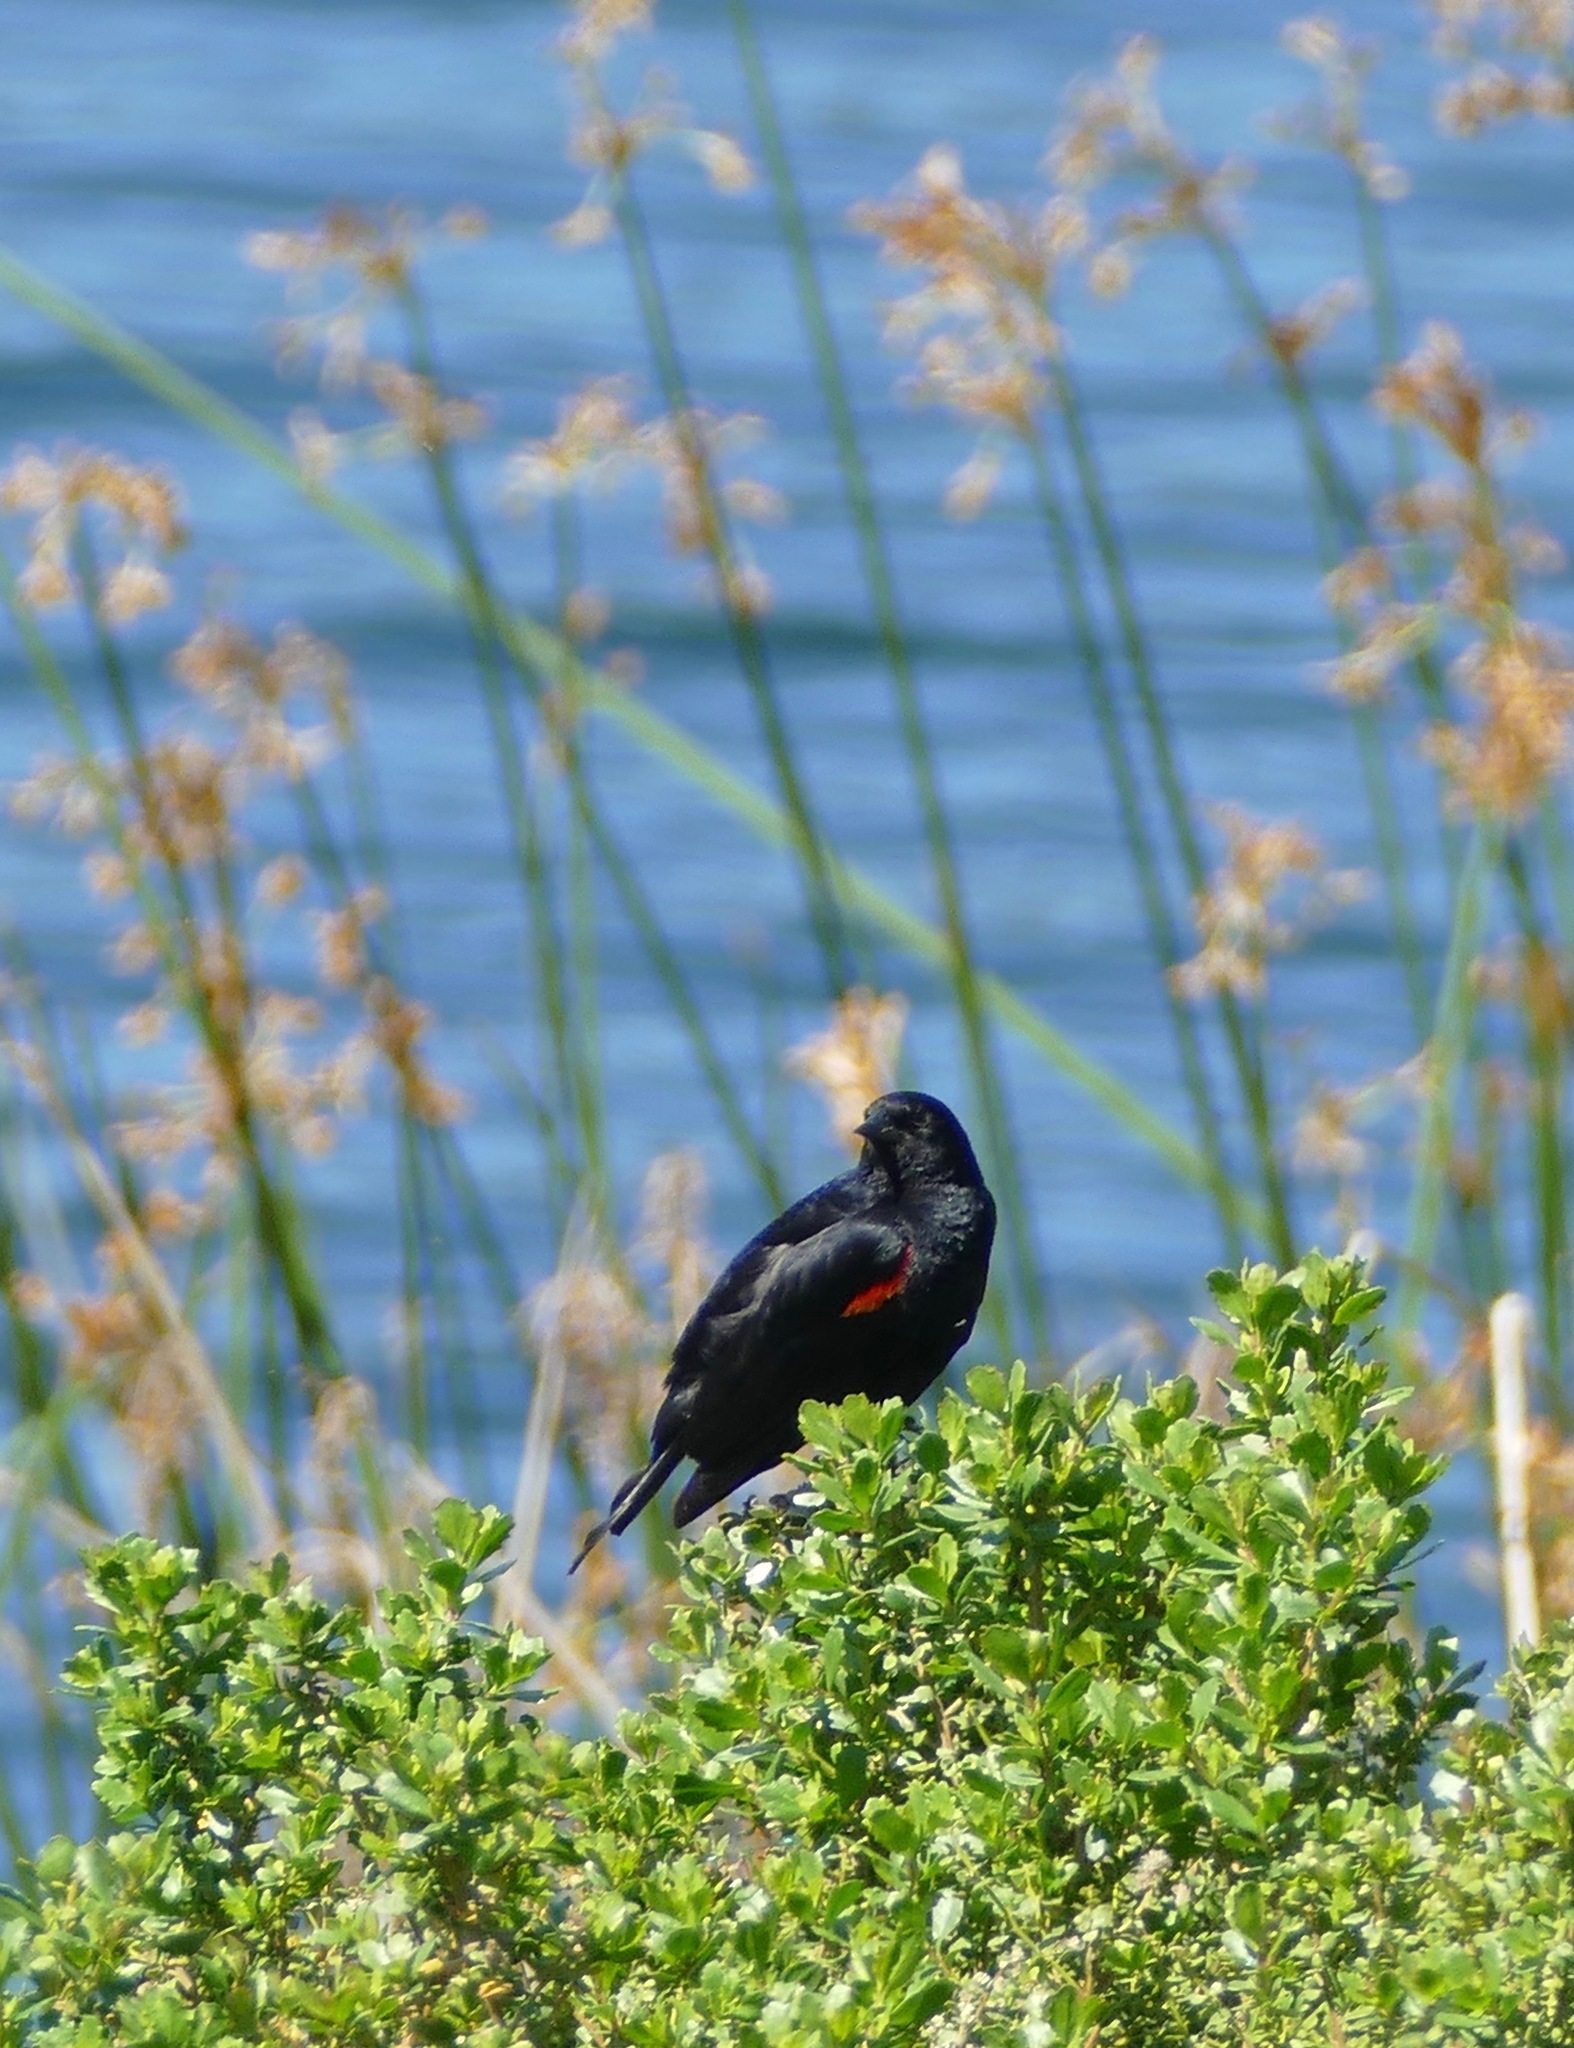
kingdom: Animalia
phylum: Chordata
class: Aves
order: Passeriformes
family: Icteridae
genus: Agelaius
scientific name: Agelaius phoeniceus
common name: Red-winged blackbird
